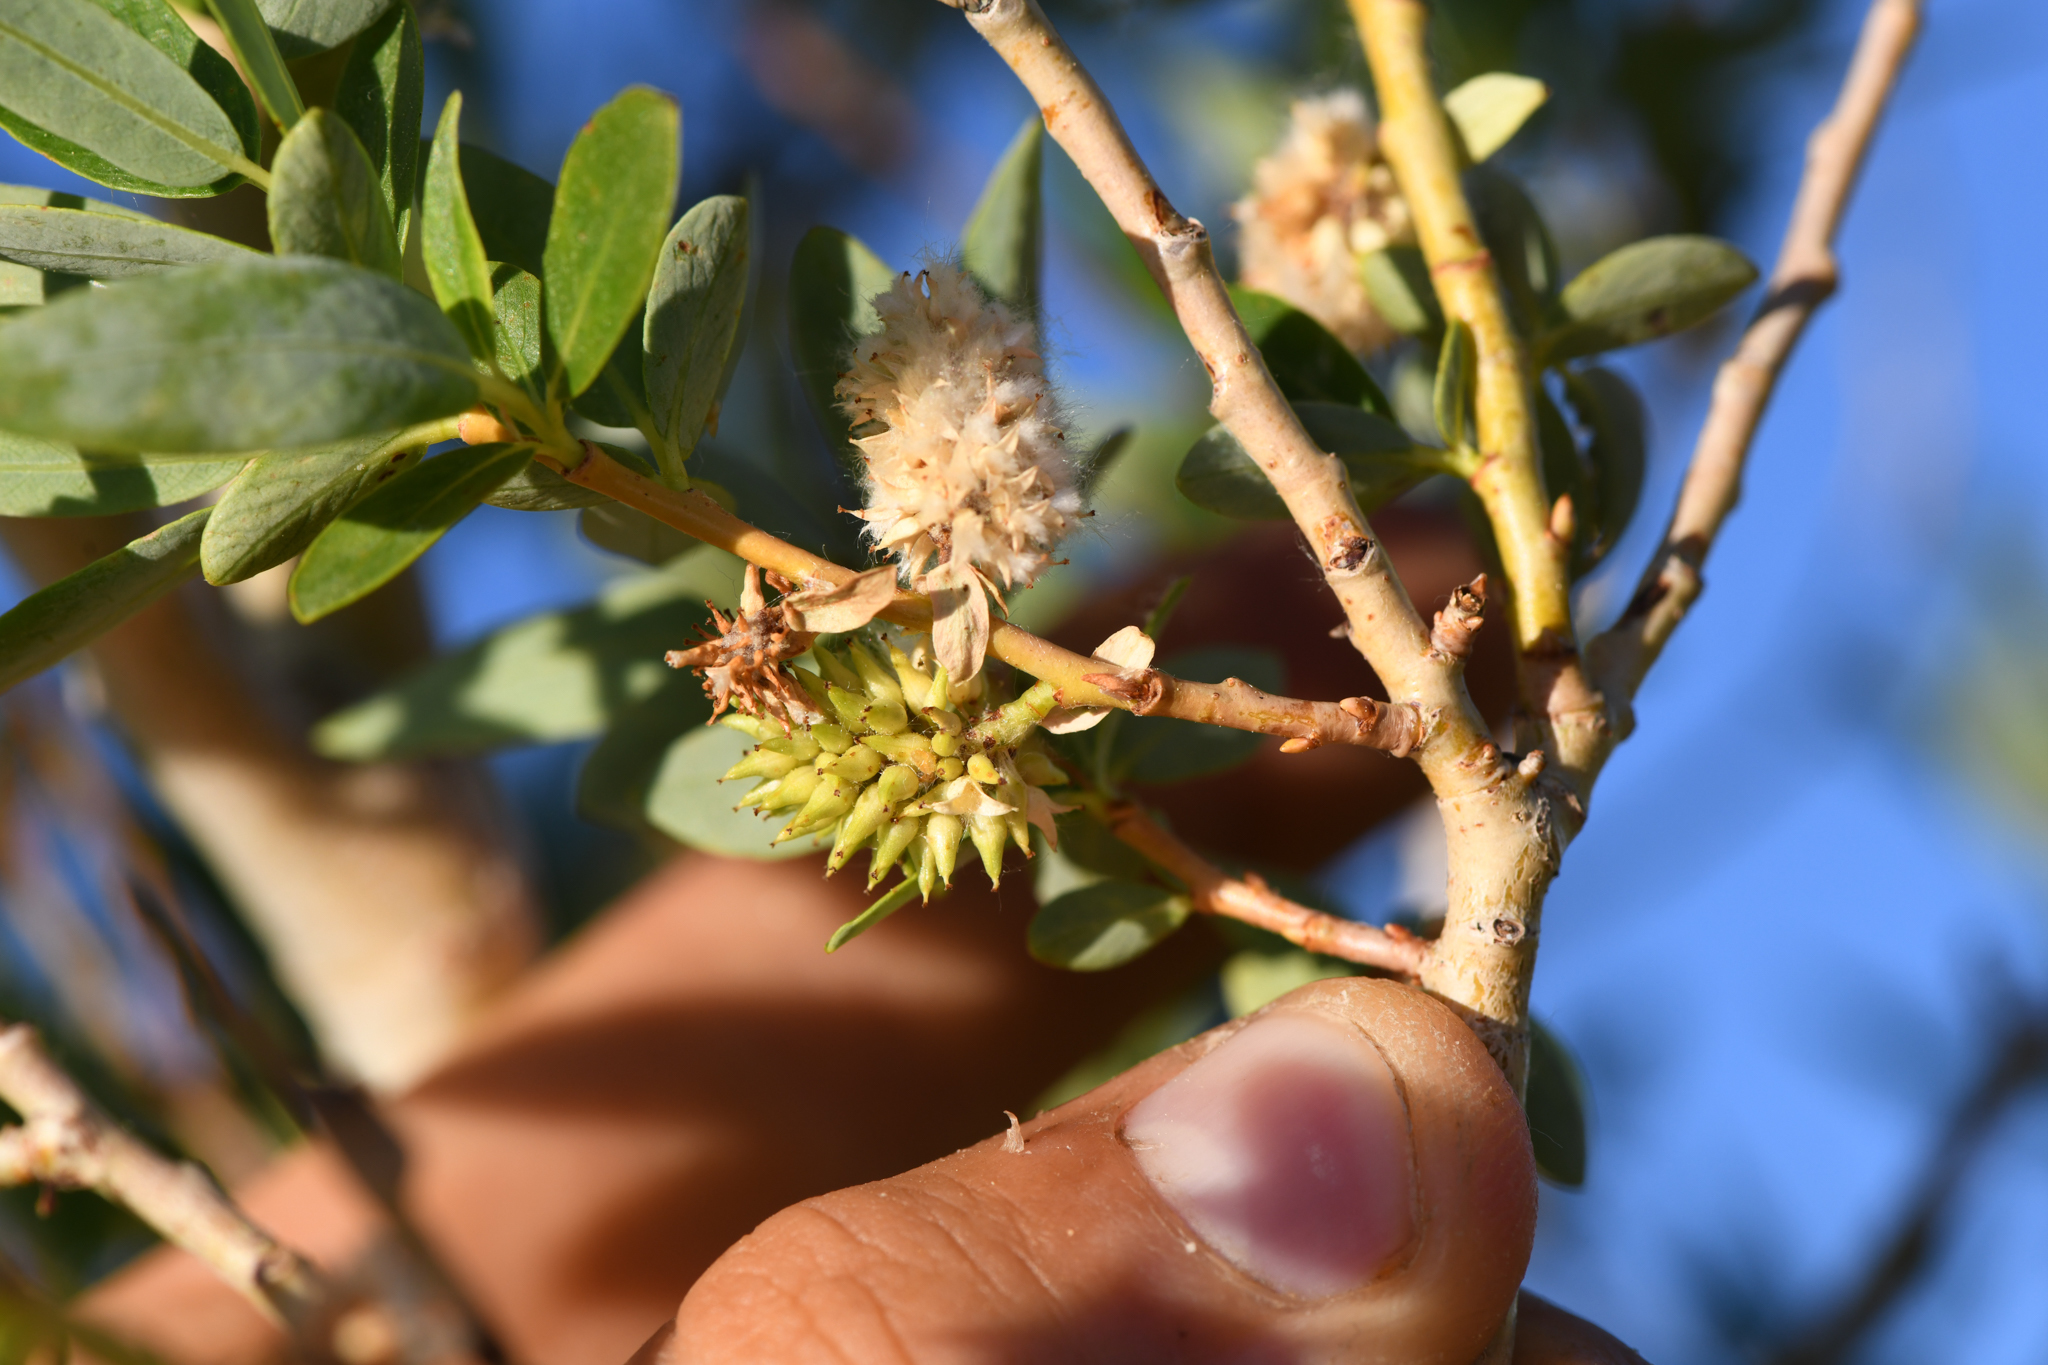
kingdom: Plantae
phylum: Tracheophyta
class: Magnoliopsida
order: Malpighiales
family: Salicaceae
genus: Salix
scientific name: Salix lutea
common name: Yellow willow
